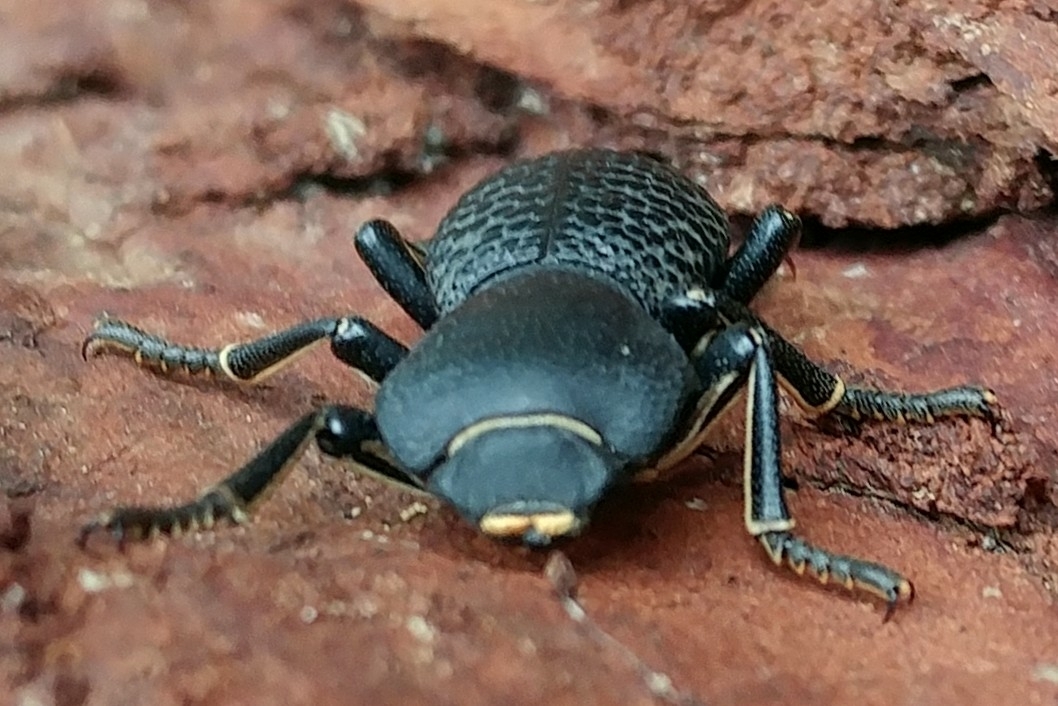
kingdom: Animalia
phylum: Arthropoda
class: Insecta
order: Coleoptera
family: Zopheridae
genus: Zopherus
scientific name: Zopherus concolor
